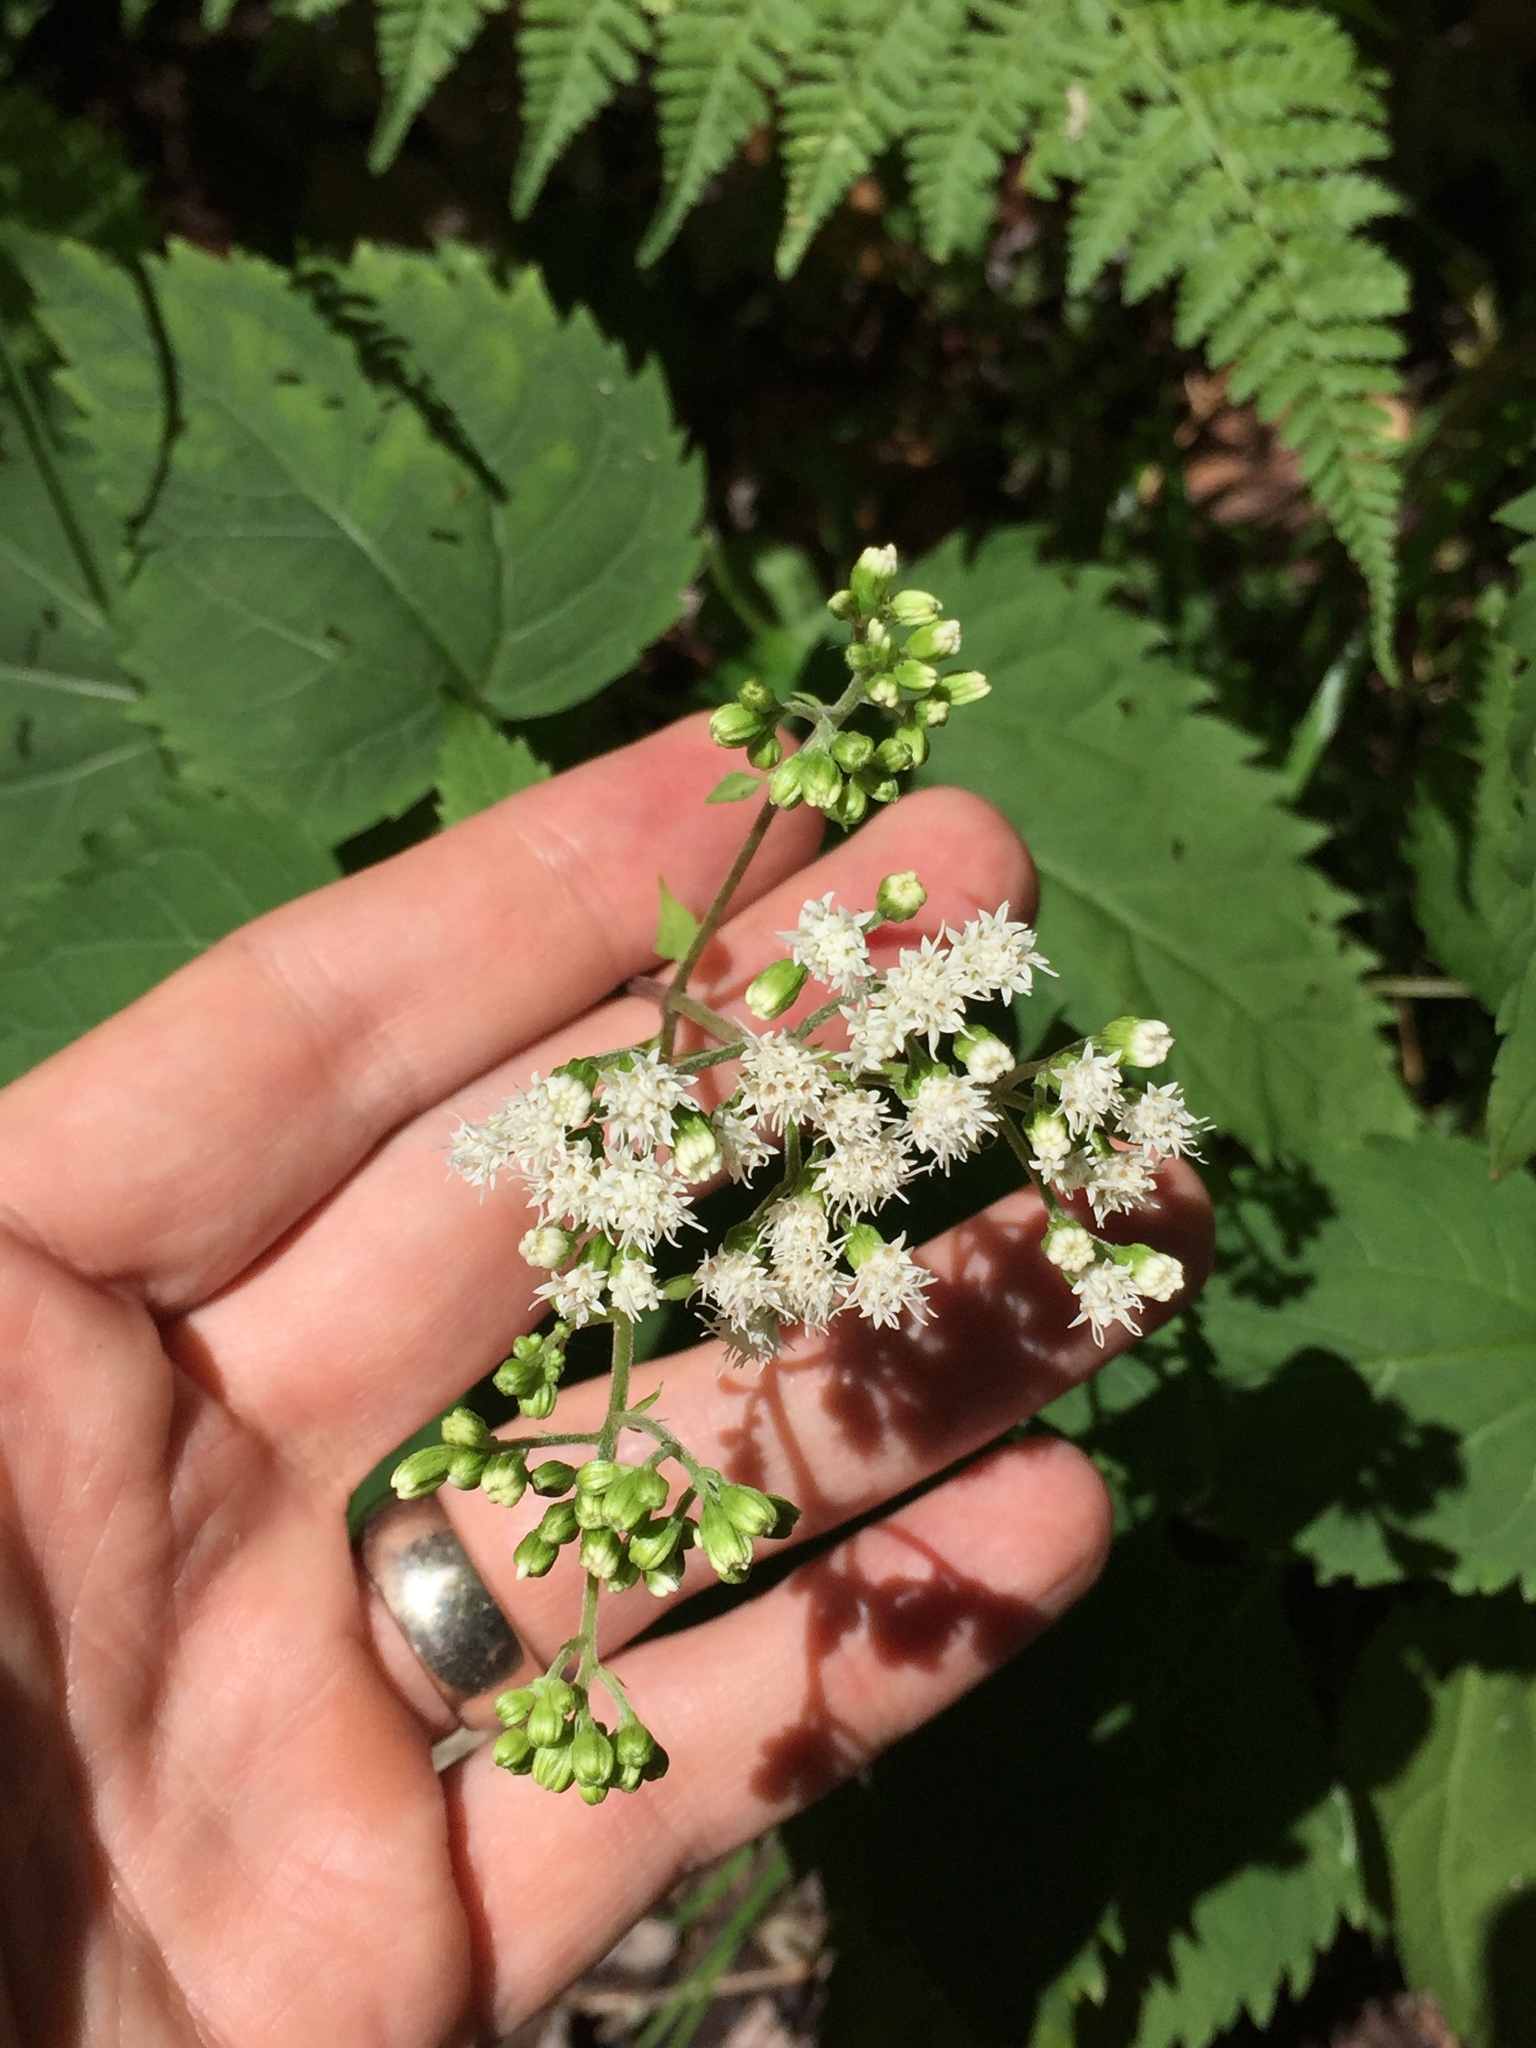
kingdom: Plantae
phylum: Tracheophyta
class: Magnoliopsida
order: Asterales
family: Asteraceae
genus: Ageratina
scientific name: Ageratina altissima
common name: White snakeroot
